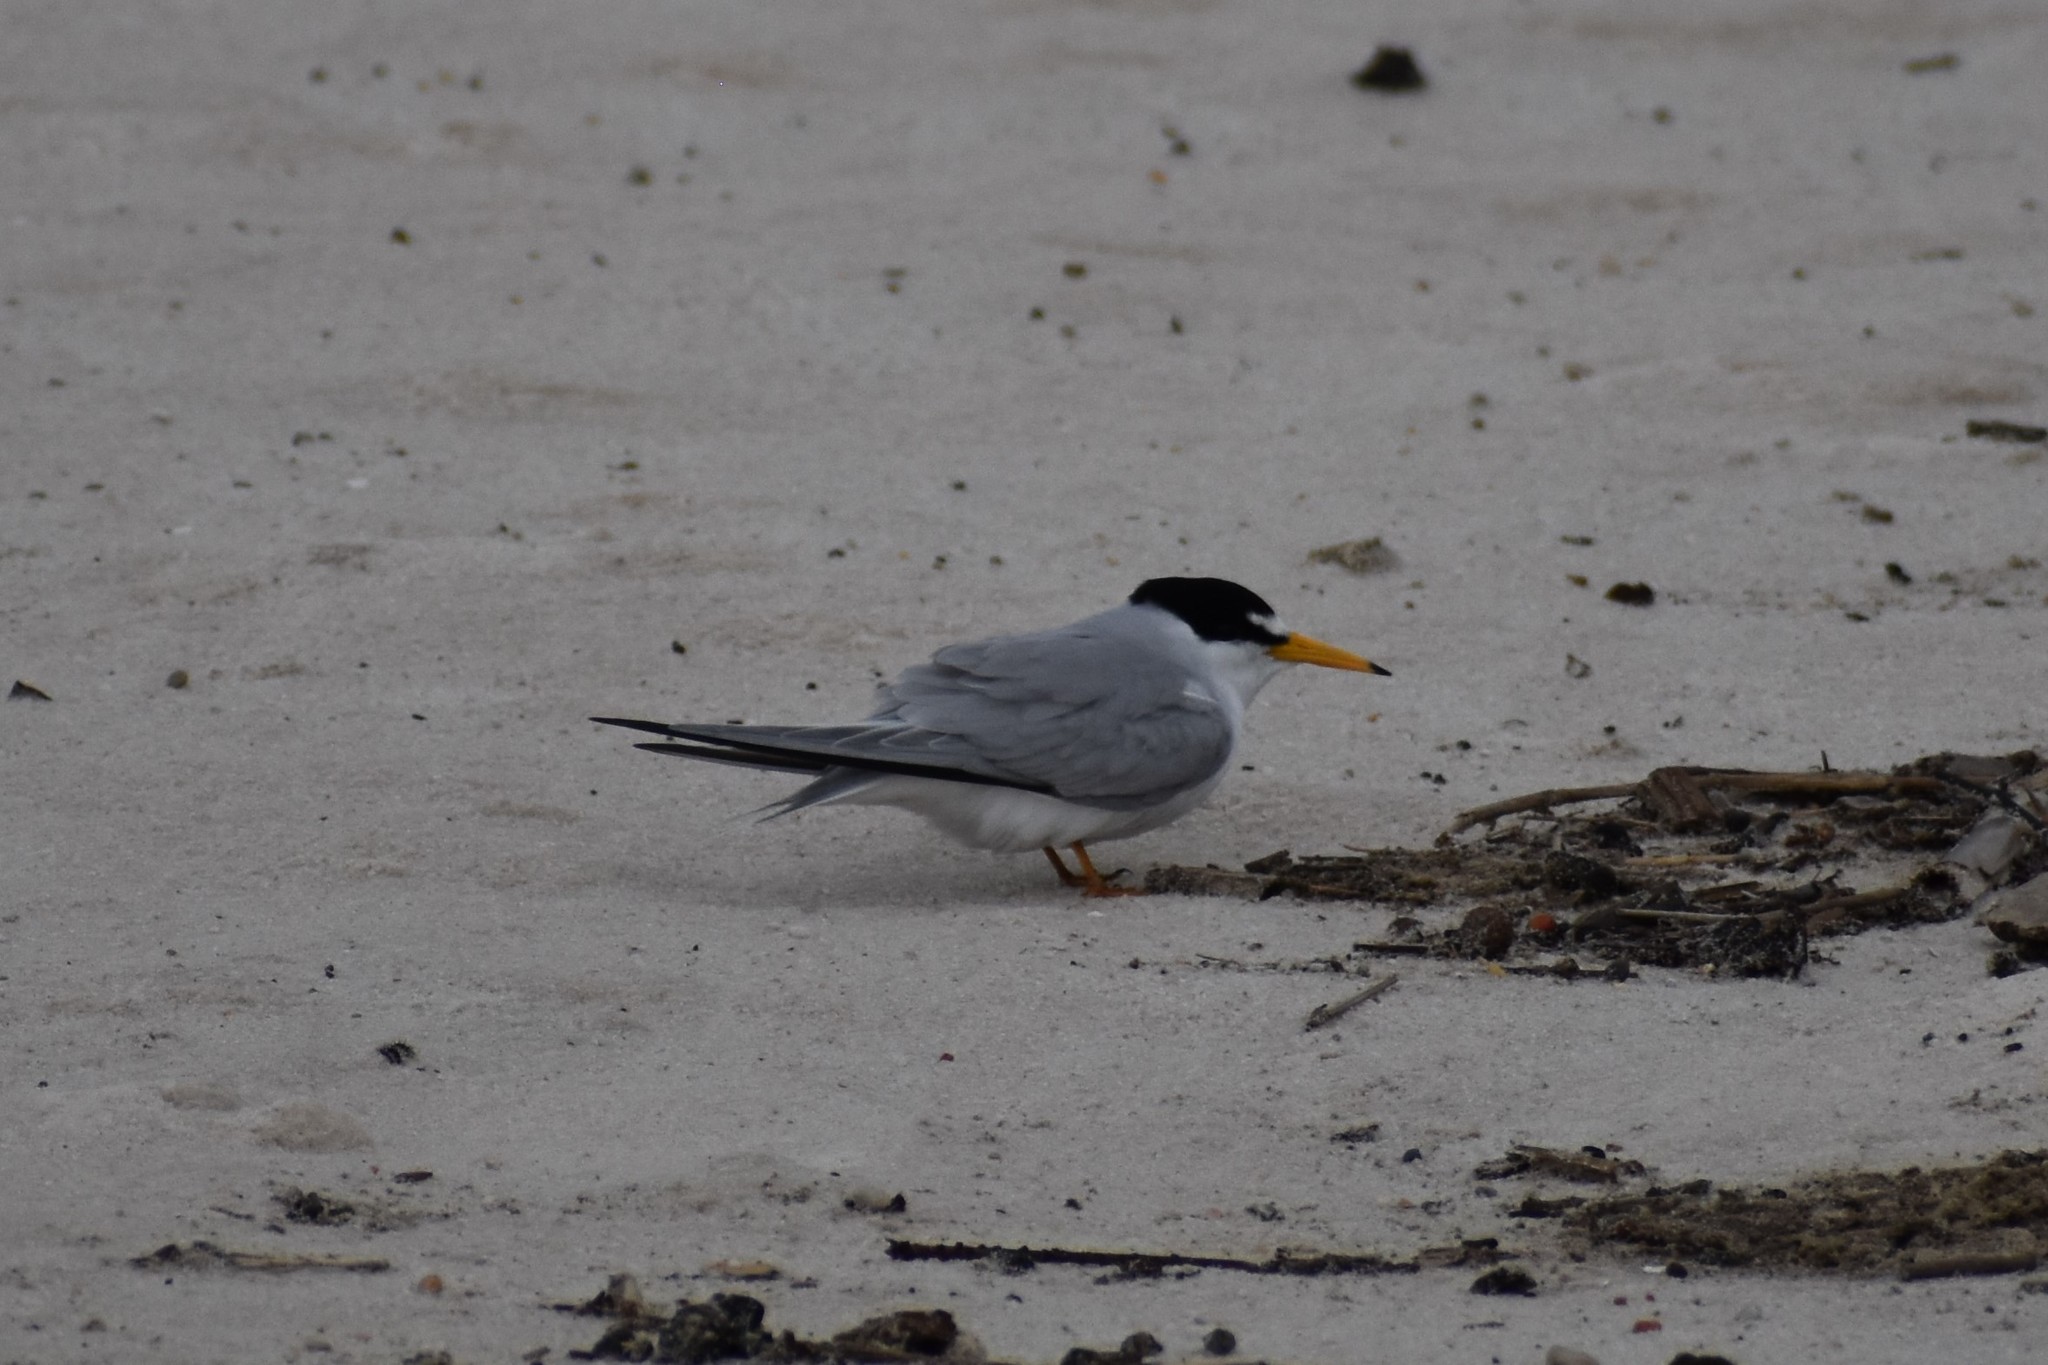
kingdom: Animalia
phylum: Chordata
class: Aves
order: Charadriiformes
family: Laridae
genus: Sternula
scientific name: Sternula antillarum
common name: Least tern
